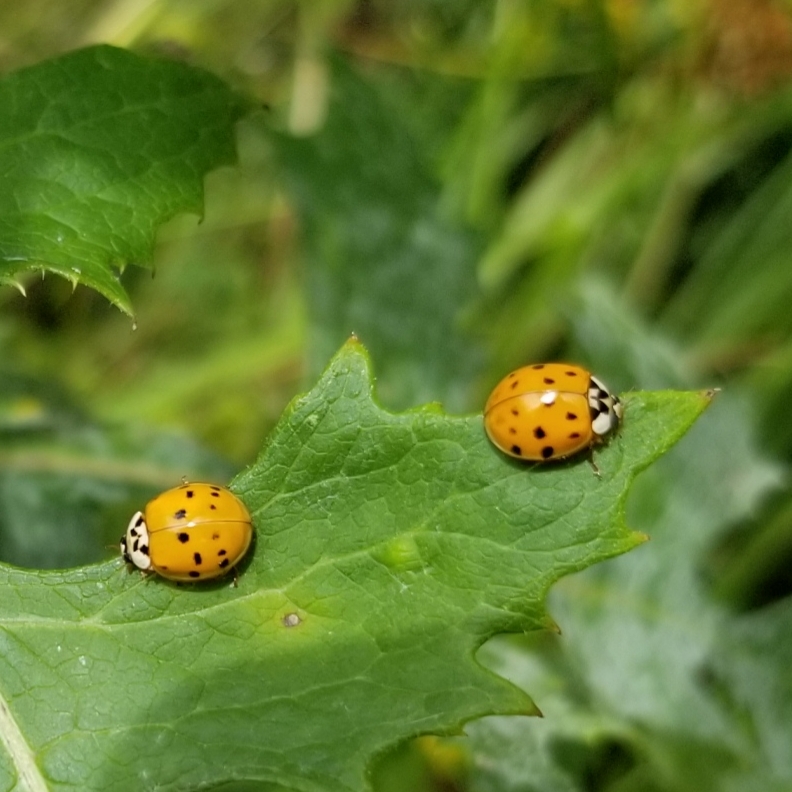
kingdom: Animalia
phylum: Arthropoda
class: Insecta
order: Coleoptera
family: Coccinellidae
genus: Harmonia
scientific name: Harmonia axyridis
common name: Harlequin ladybird
